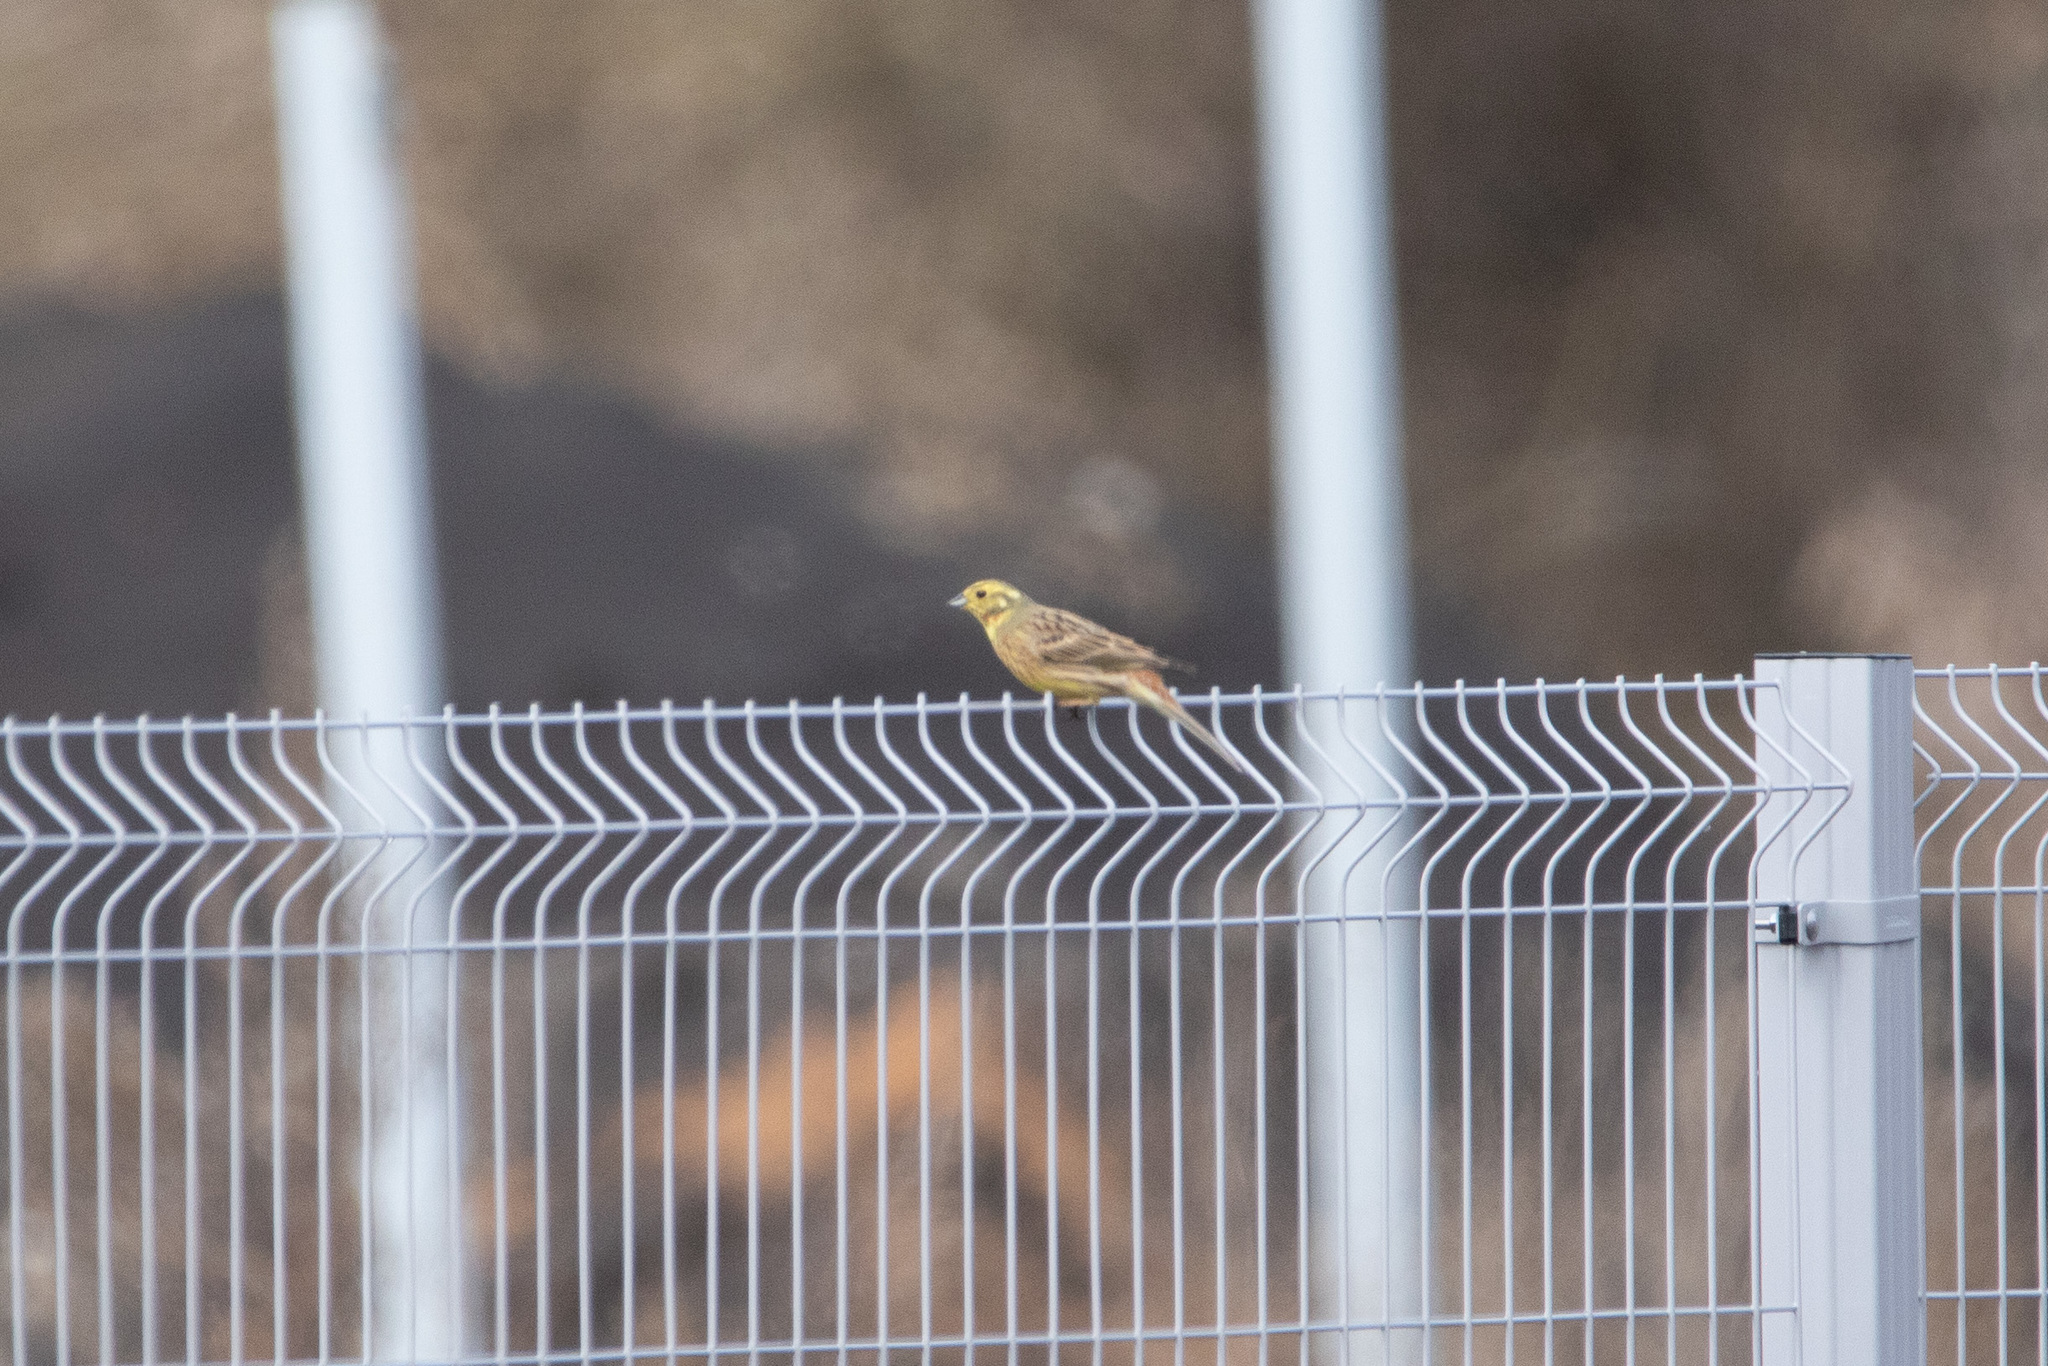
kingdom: Animalia
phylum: Chordata
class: Aves
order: Passeriformes
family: Emberizidae
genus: Emberiza
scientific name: Emberiza citrinella
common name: Yellowhammer
